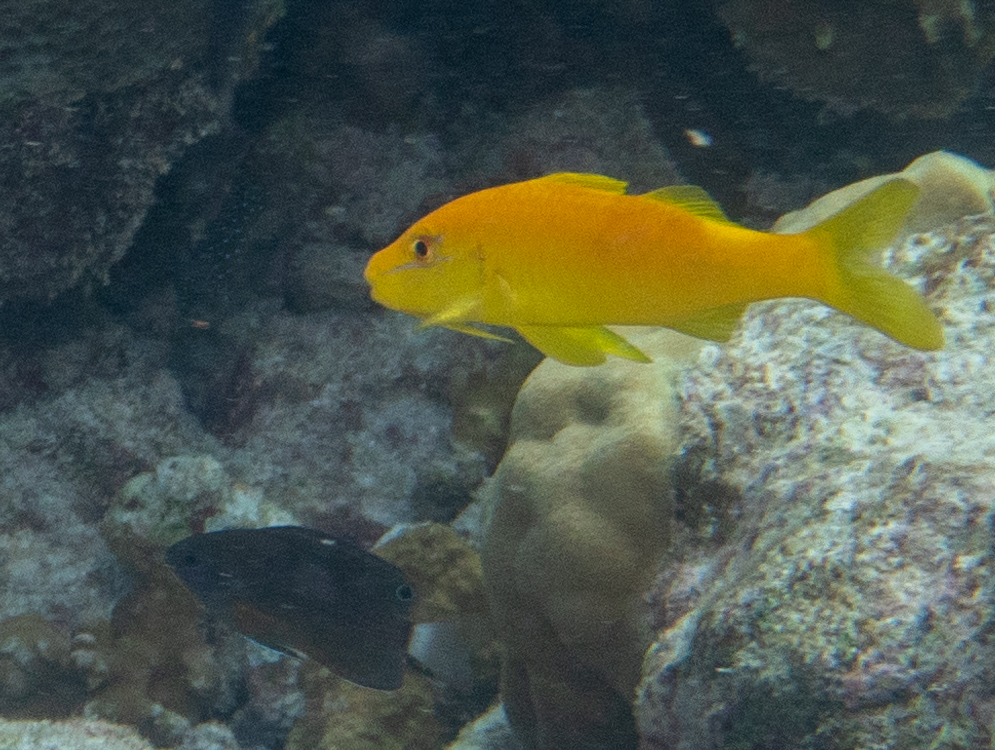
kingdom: Animalia
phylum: Chordata
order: Perciformes
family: Mullidae
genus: Parupeneus
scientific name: Parupeneus cyclostomus
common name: Goldsaddle goatfish
